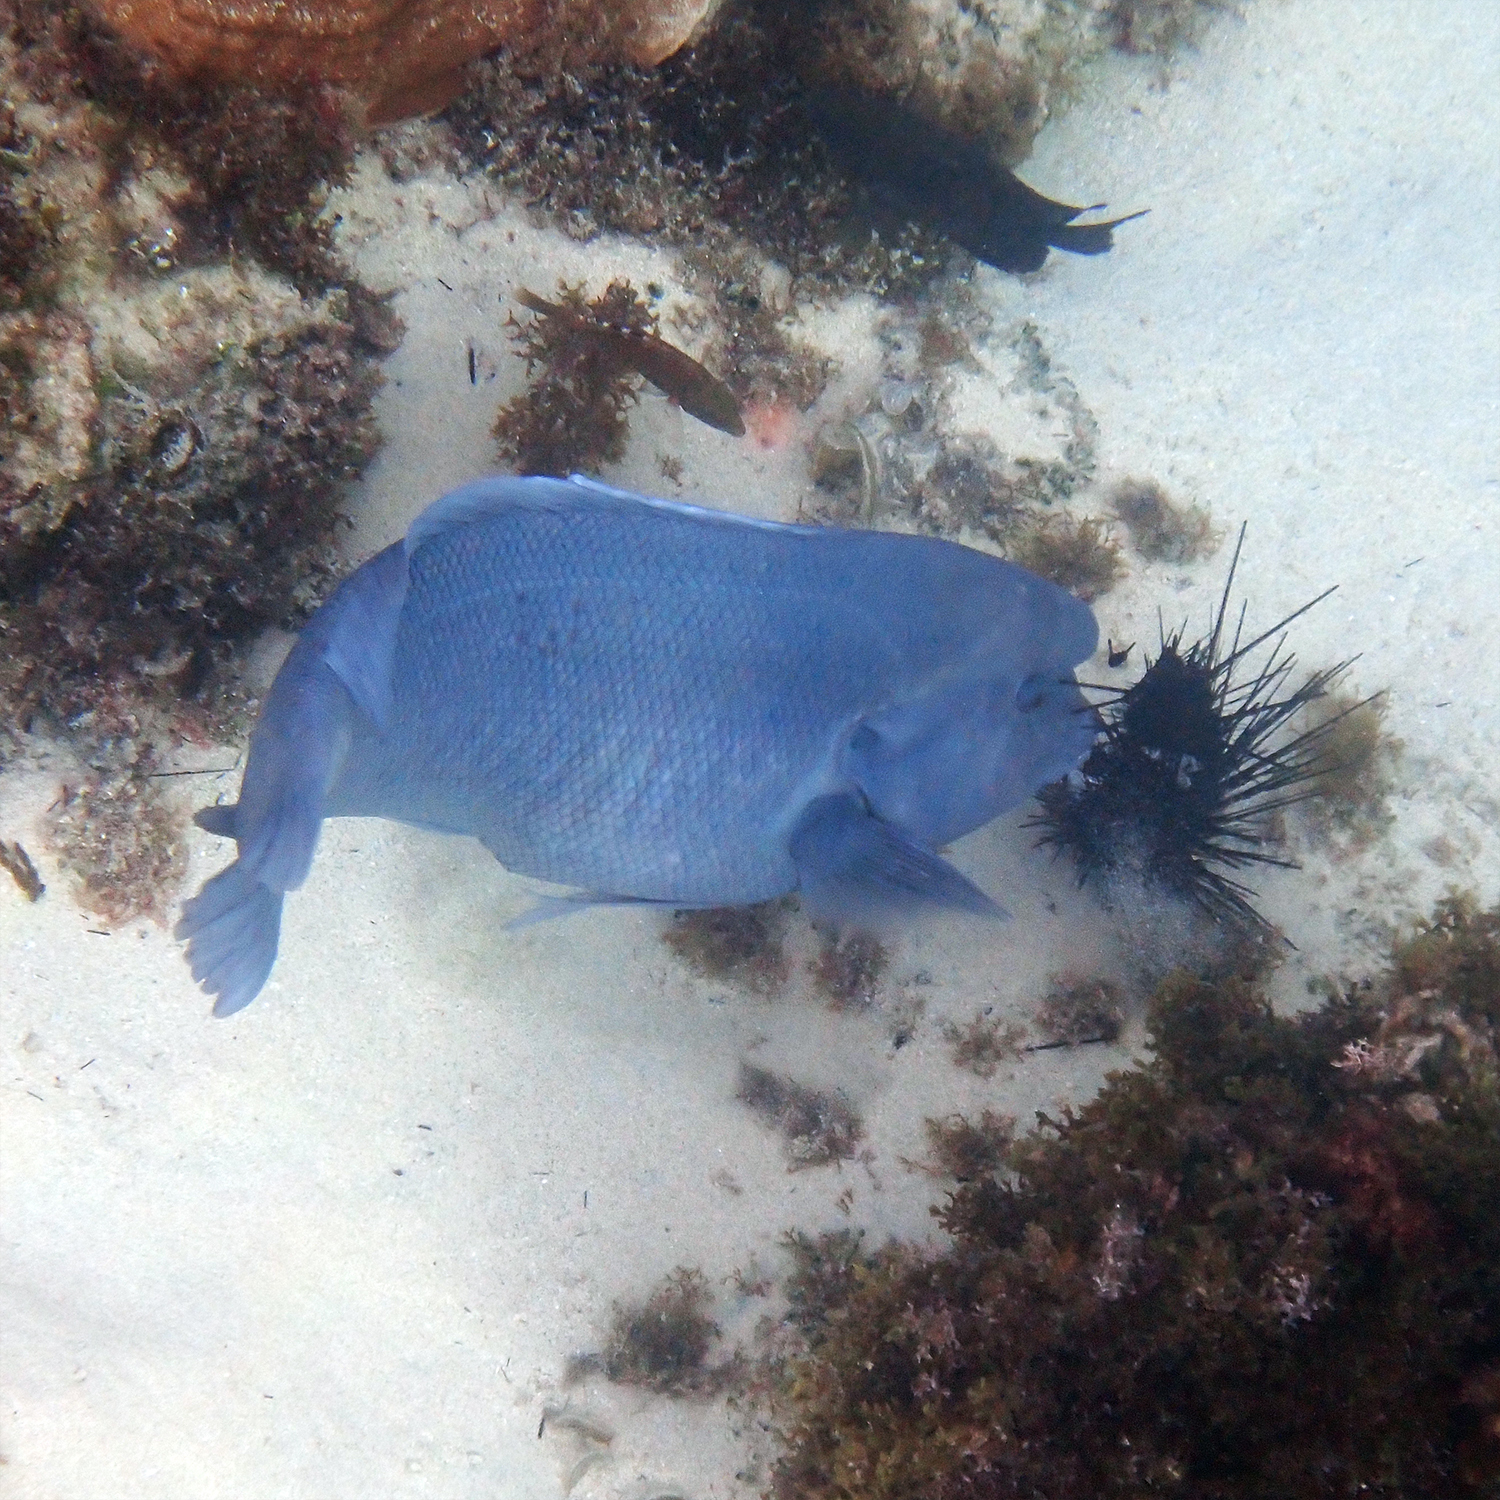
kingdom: Animalia
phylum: Chordata
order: Perciformes
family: Labridae
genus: Coris
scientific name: Coris bulbifrons
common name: Doubleheader
